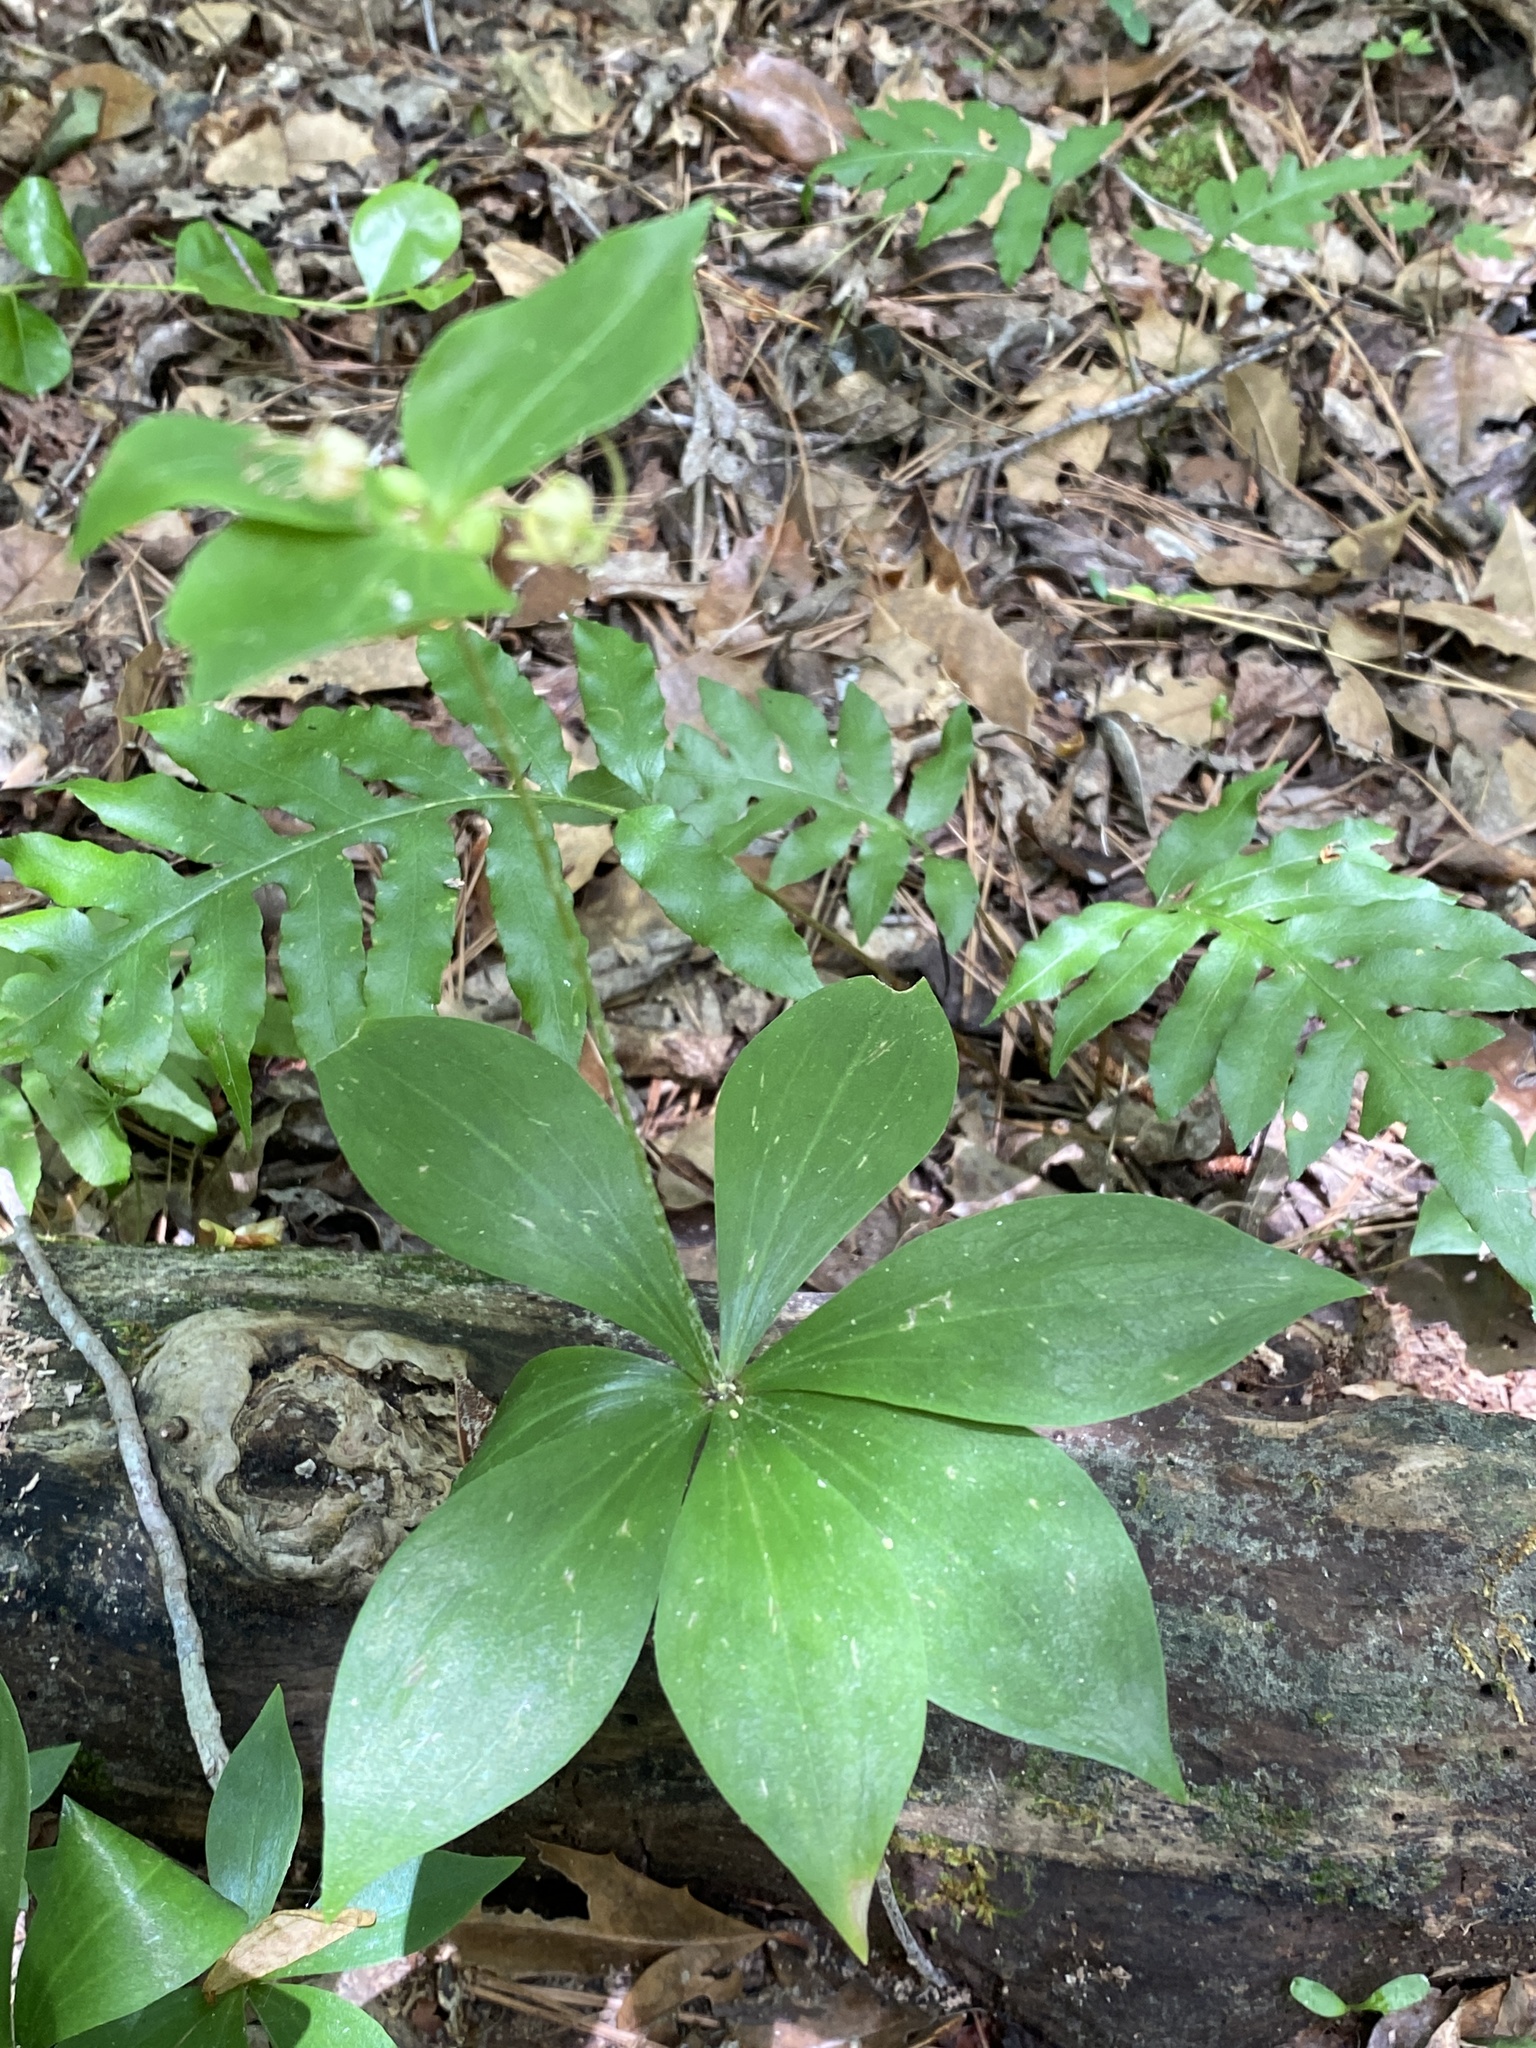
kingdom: Plantae
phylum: Tracheophyta
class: Liliopsida
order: Liliales
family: Liliaceae
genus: Medeola
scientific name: Medeola virginiana
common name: Indian cucumber-root
